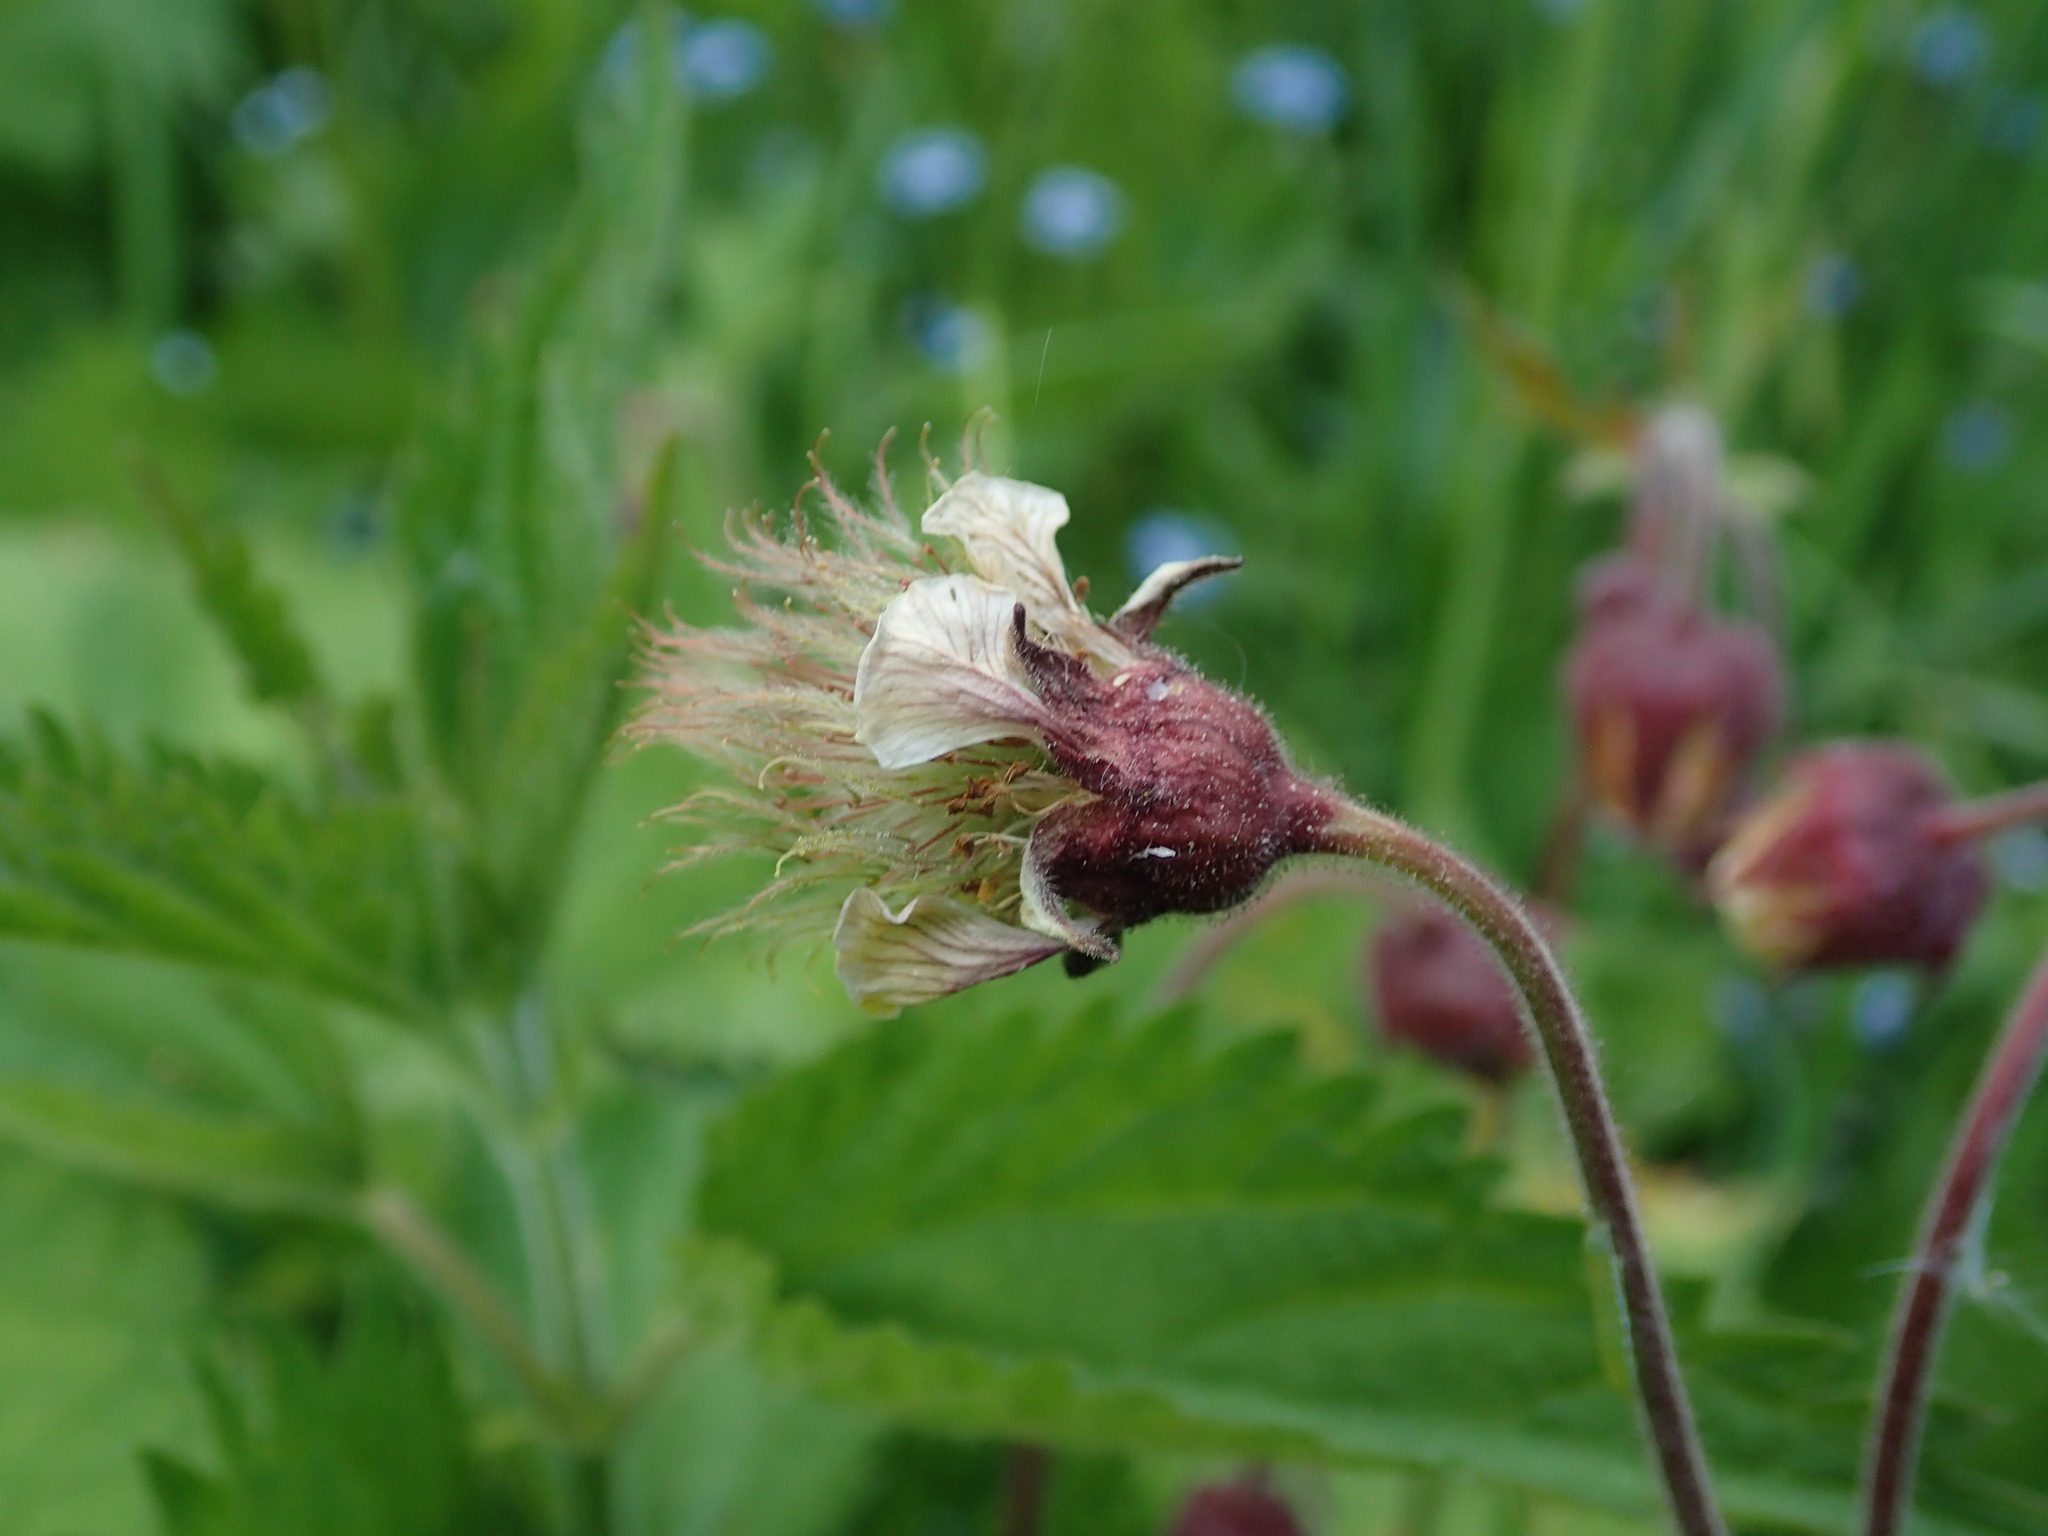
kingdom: Plantae
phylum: Tracheophyta
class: Magnoliopsida
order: Rosales
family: Rosaceae
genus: Geum
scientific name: Geum rivale
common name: Water avens
